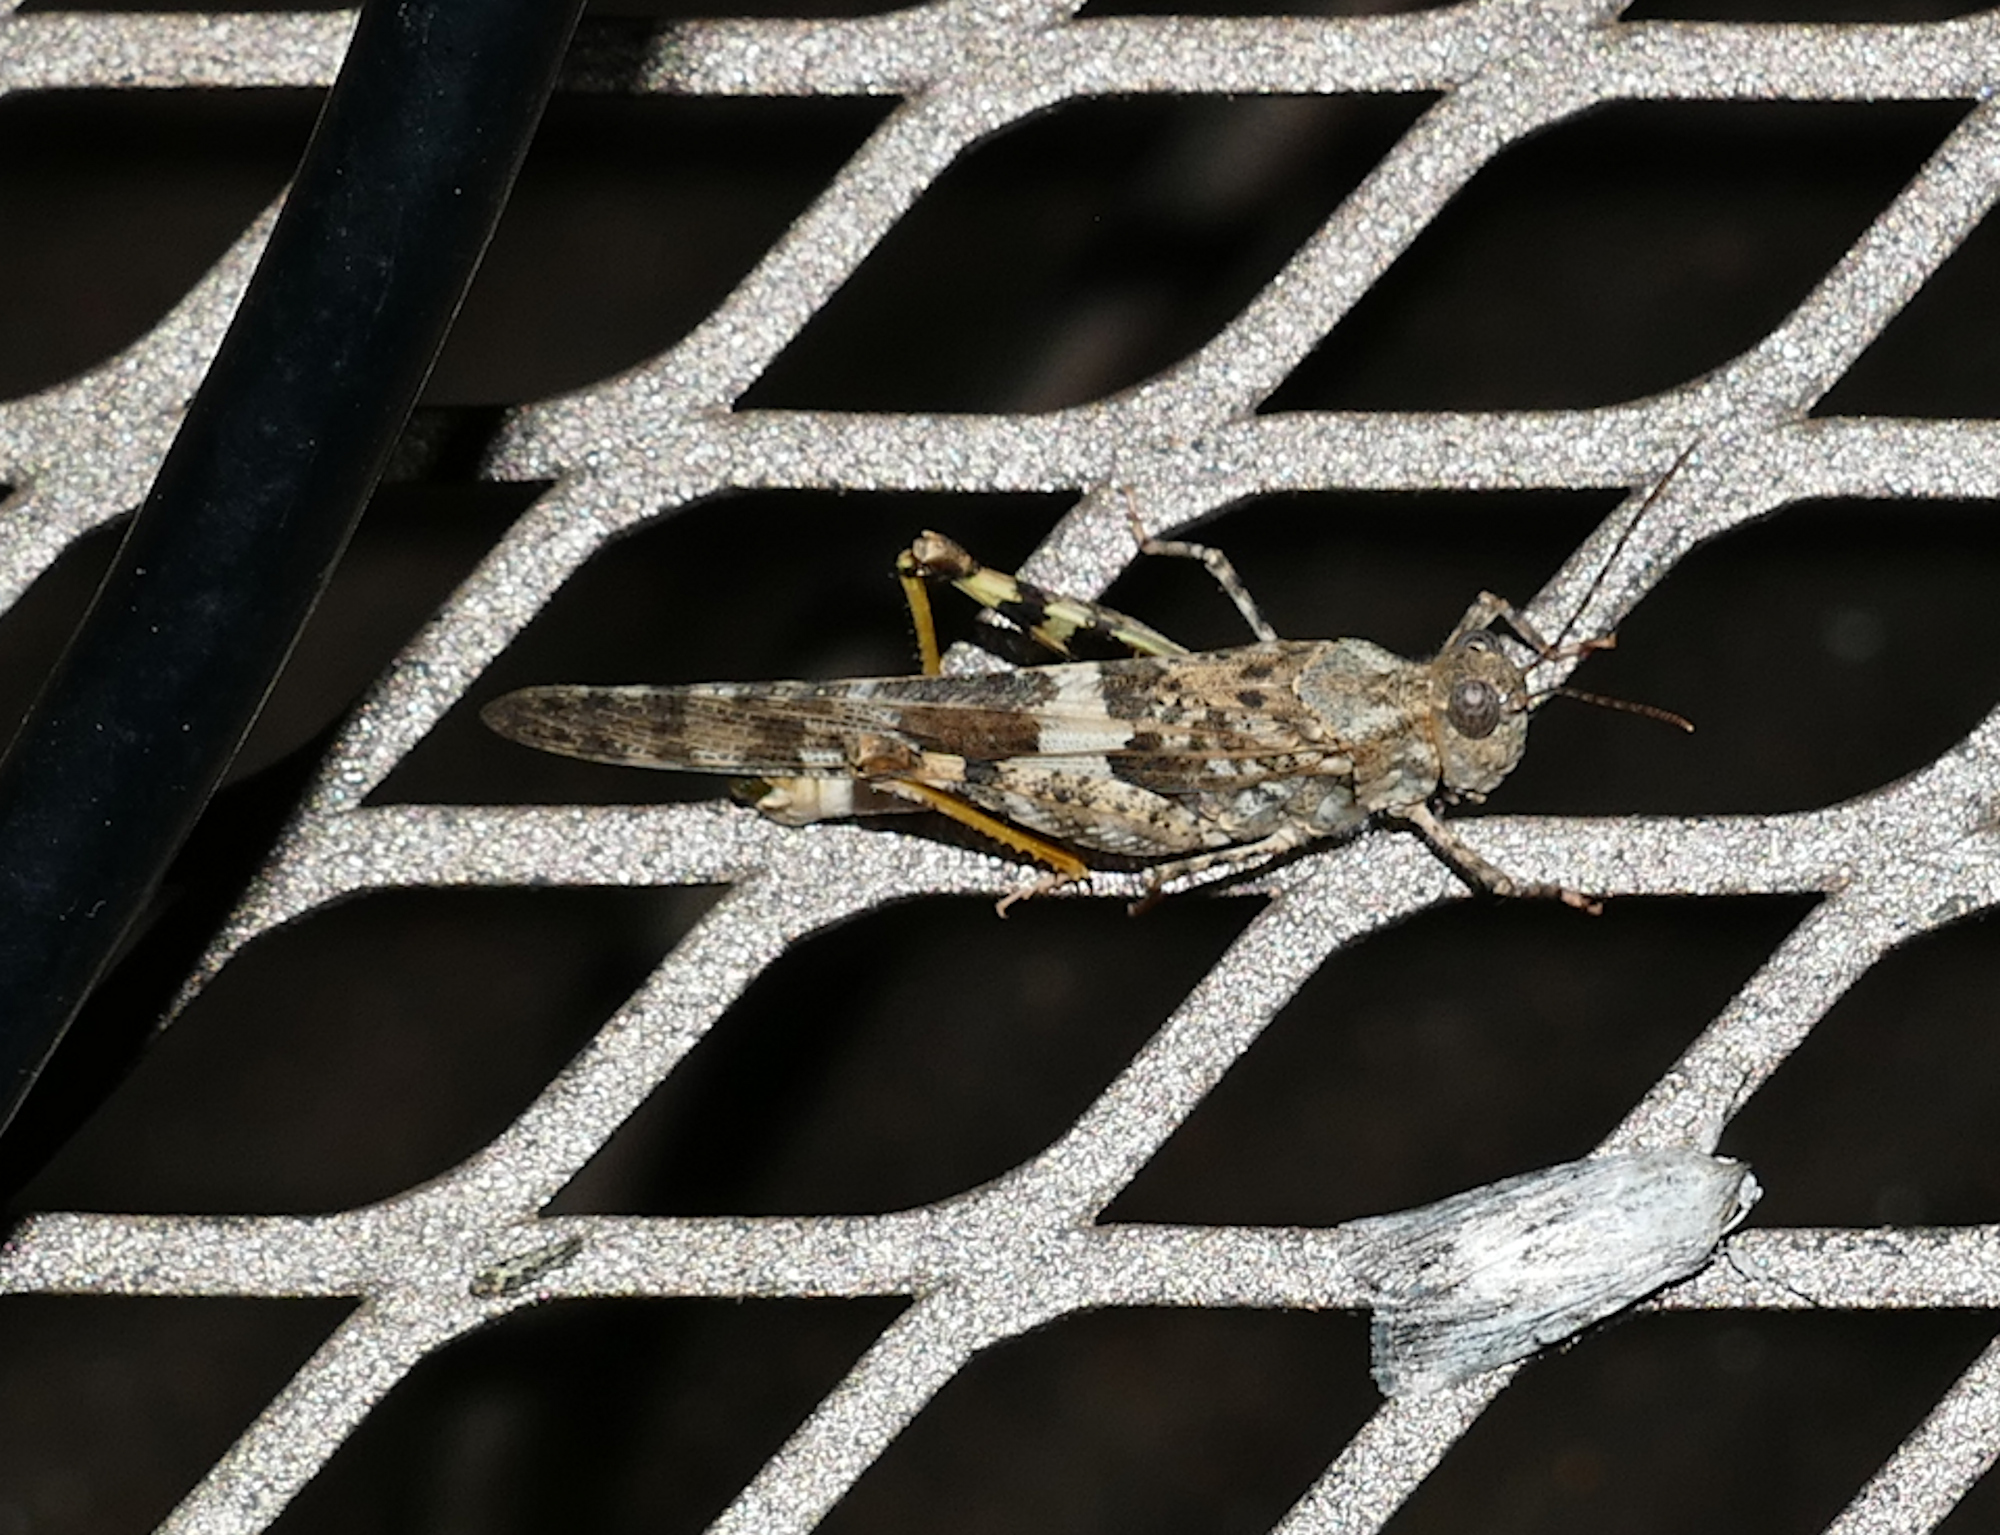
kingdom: Animalia
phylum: Arthropoda
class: Insecta
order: Orthoptera
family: Acrididae
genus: Trimerotropis
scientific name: Trimerotropis pallidipennis
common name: Pallid-winged grasshopper
